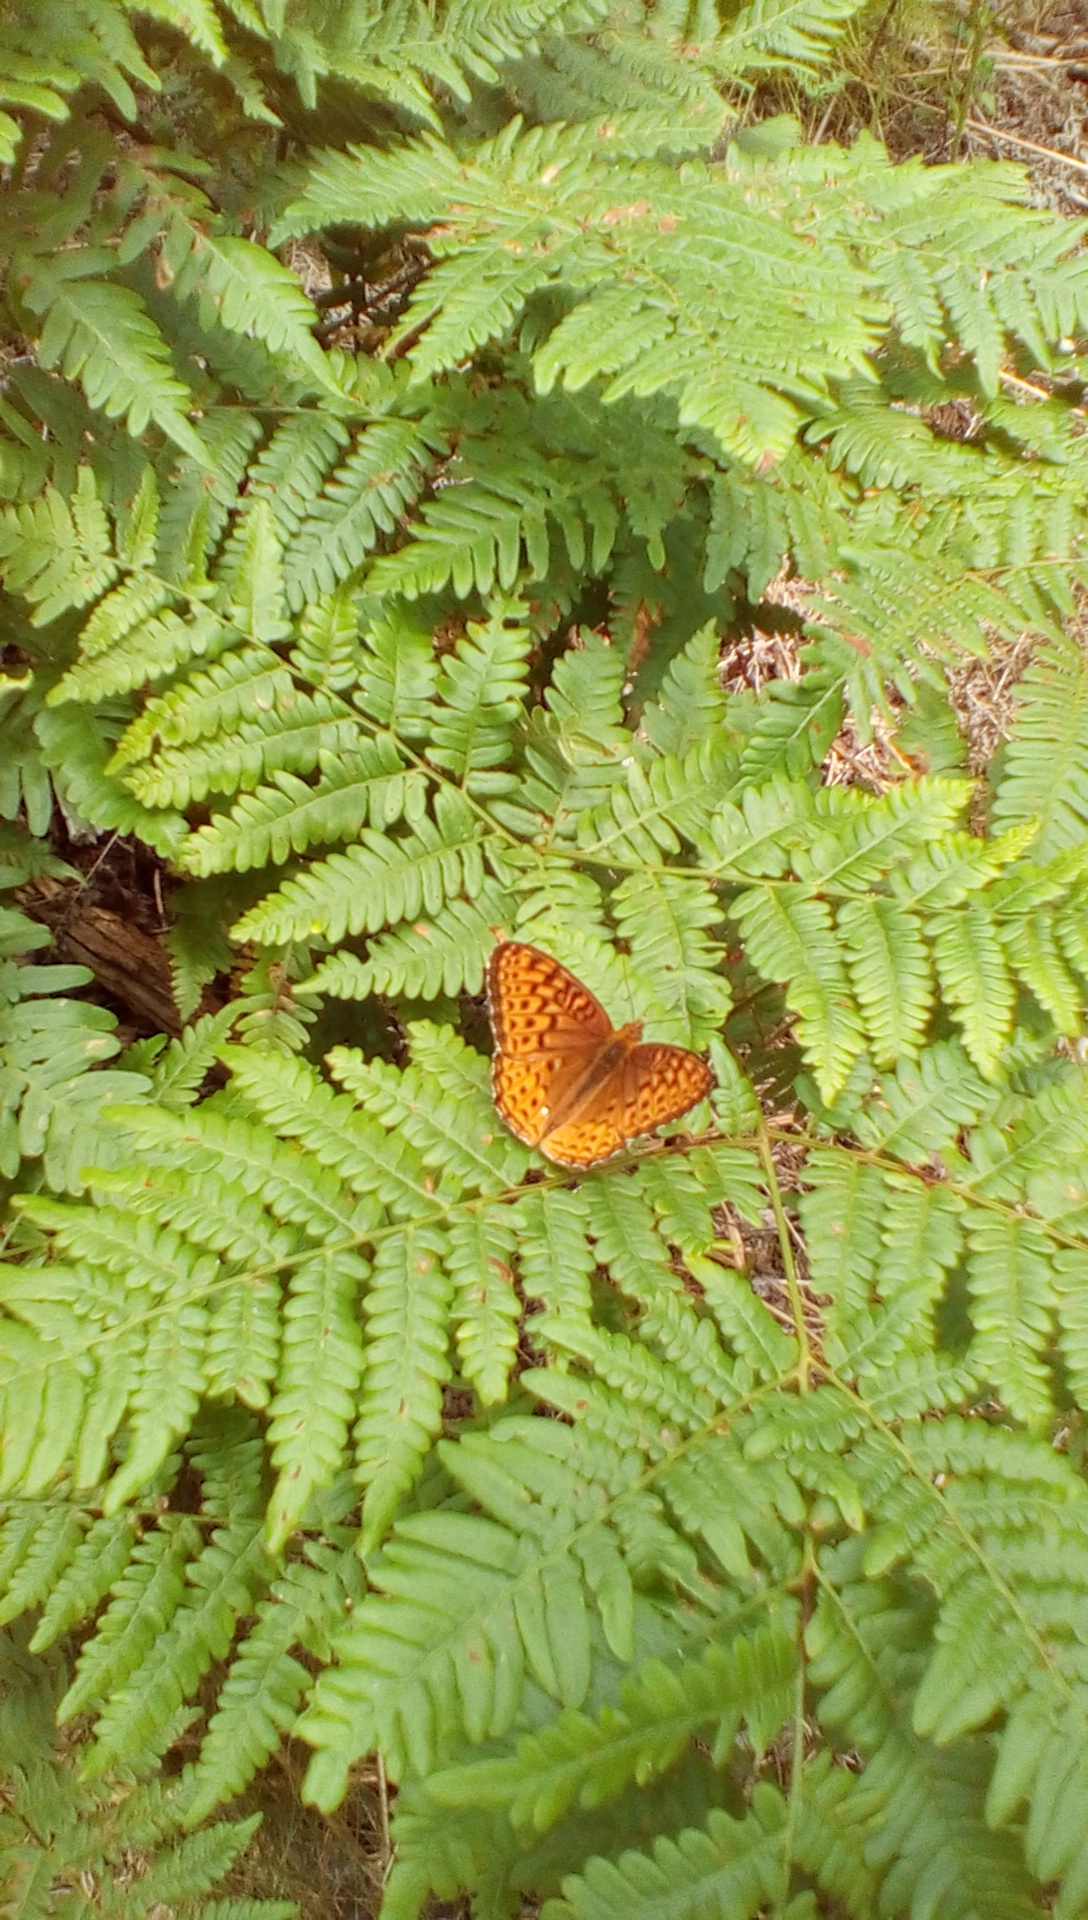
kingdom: Animalia
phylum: Arthropoda
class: Insecta
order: Lepidoptera
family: Nymphalidae
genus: Speyeria
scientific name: Speyeria cybele
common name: Great spangled fritillary
